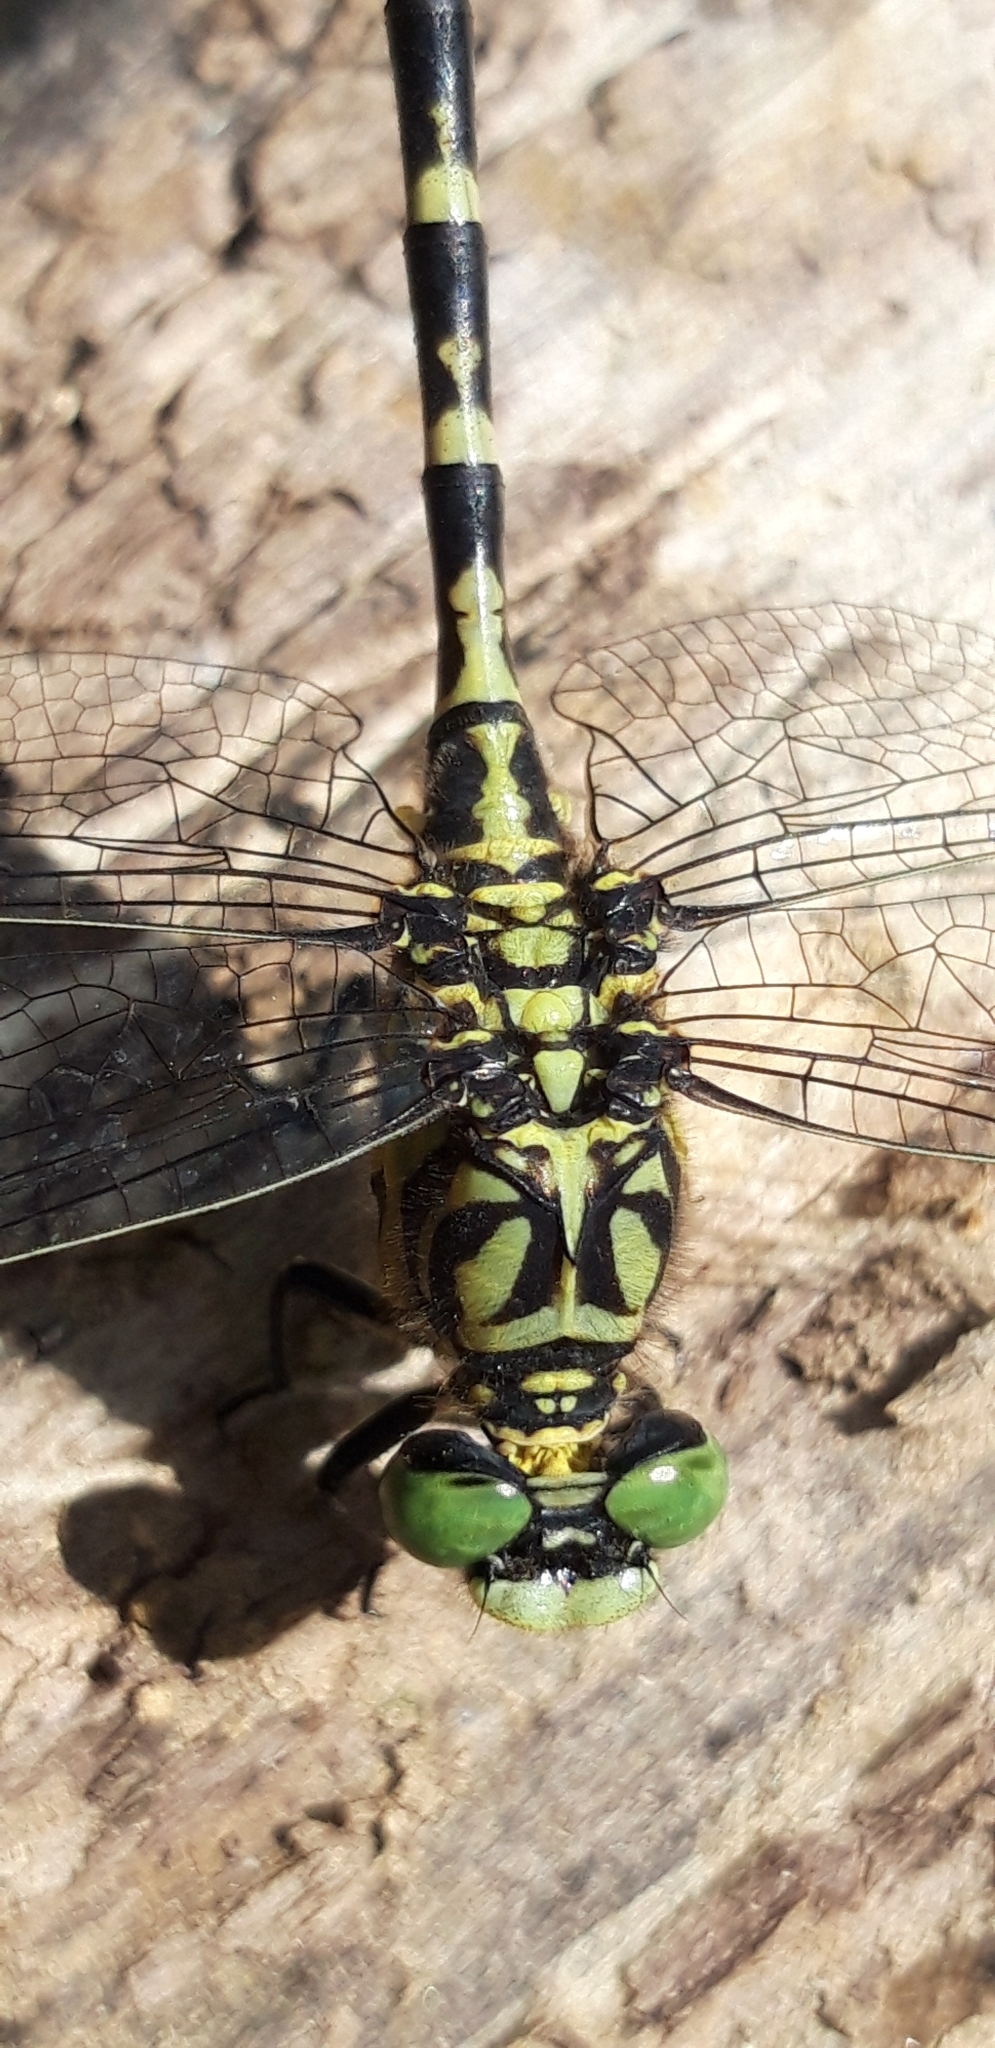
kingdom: Animalia
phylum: Arthropoda
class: Insecta
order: Odonata
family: Gomphidae
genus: Onychogomphus
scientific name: Onychogomphus forcipatus
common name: Small pincertail
